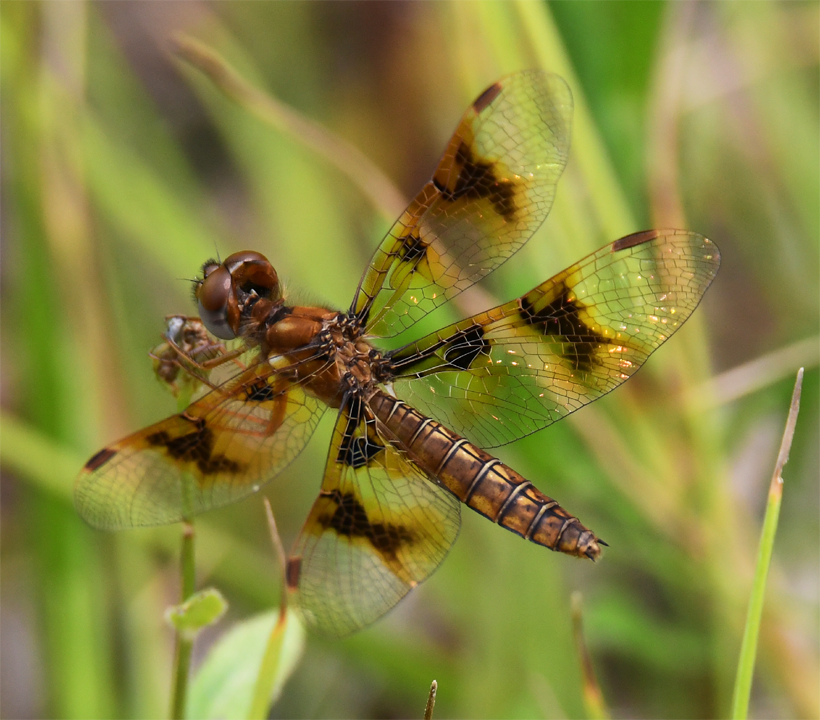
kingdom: Animalia
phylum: Arthropoda
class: Insecta
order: Odonata
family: Libellulidae
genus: Perithemis
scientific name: Perithemis tenera
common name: Eastern amberwing
